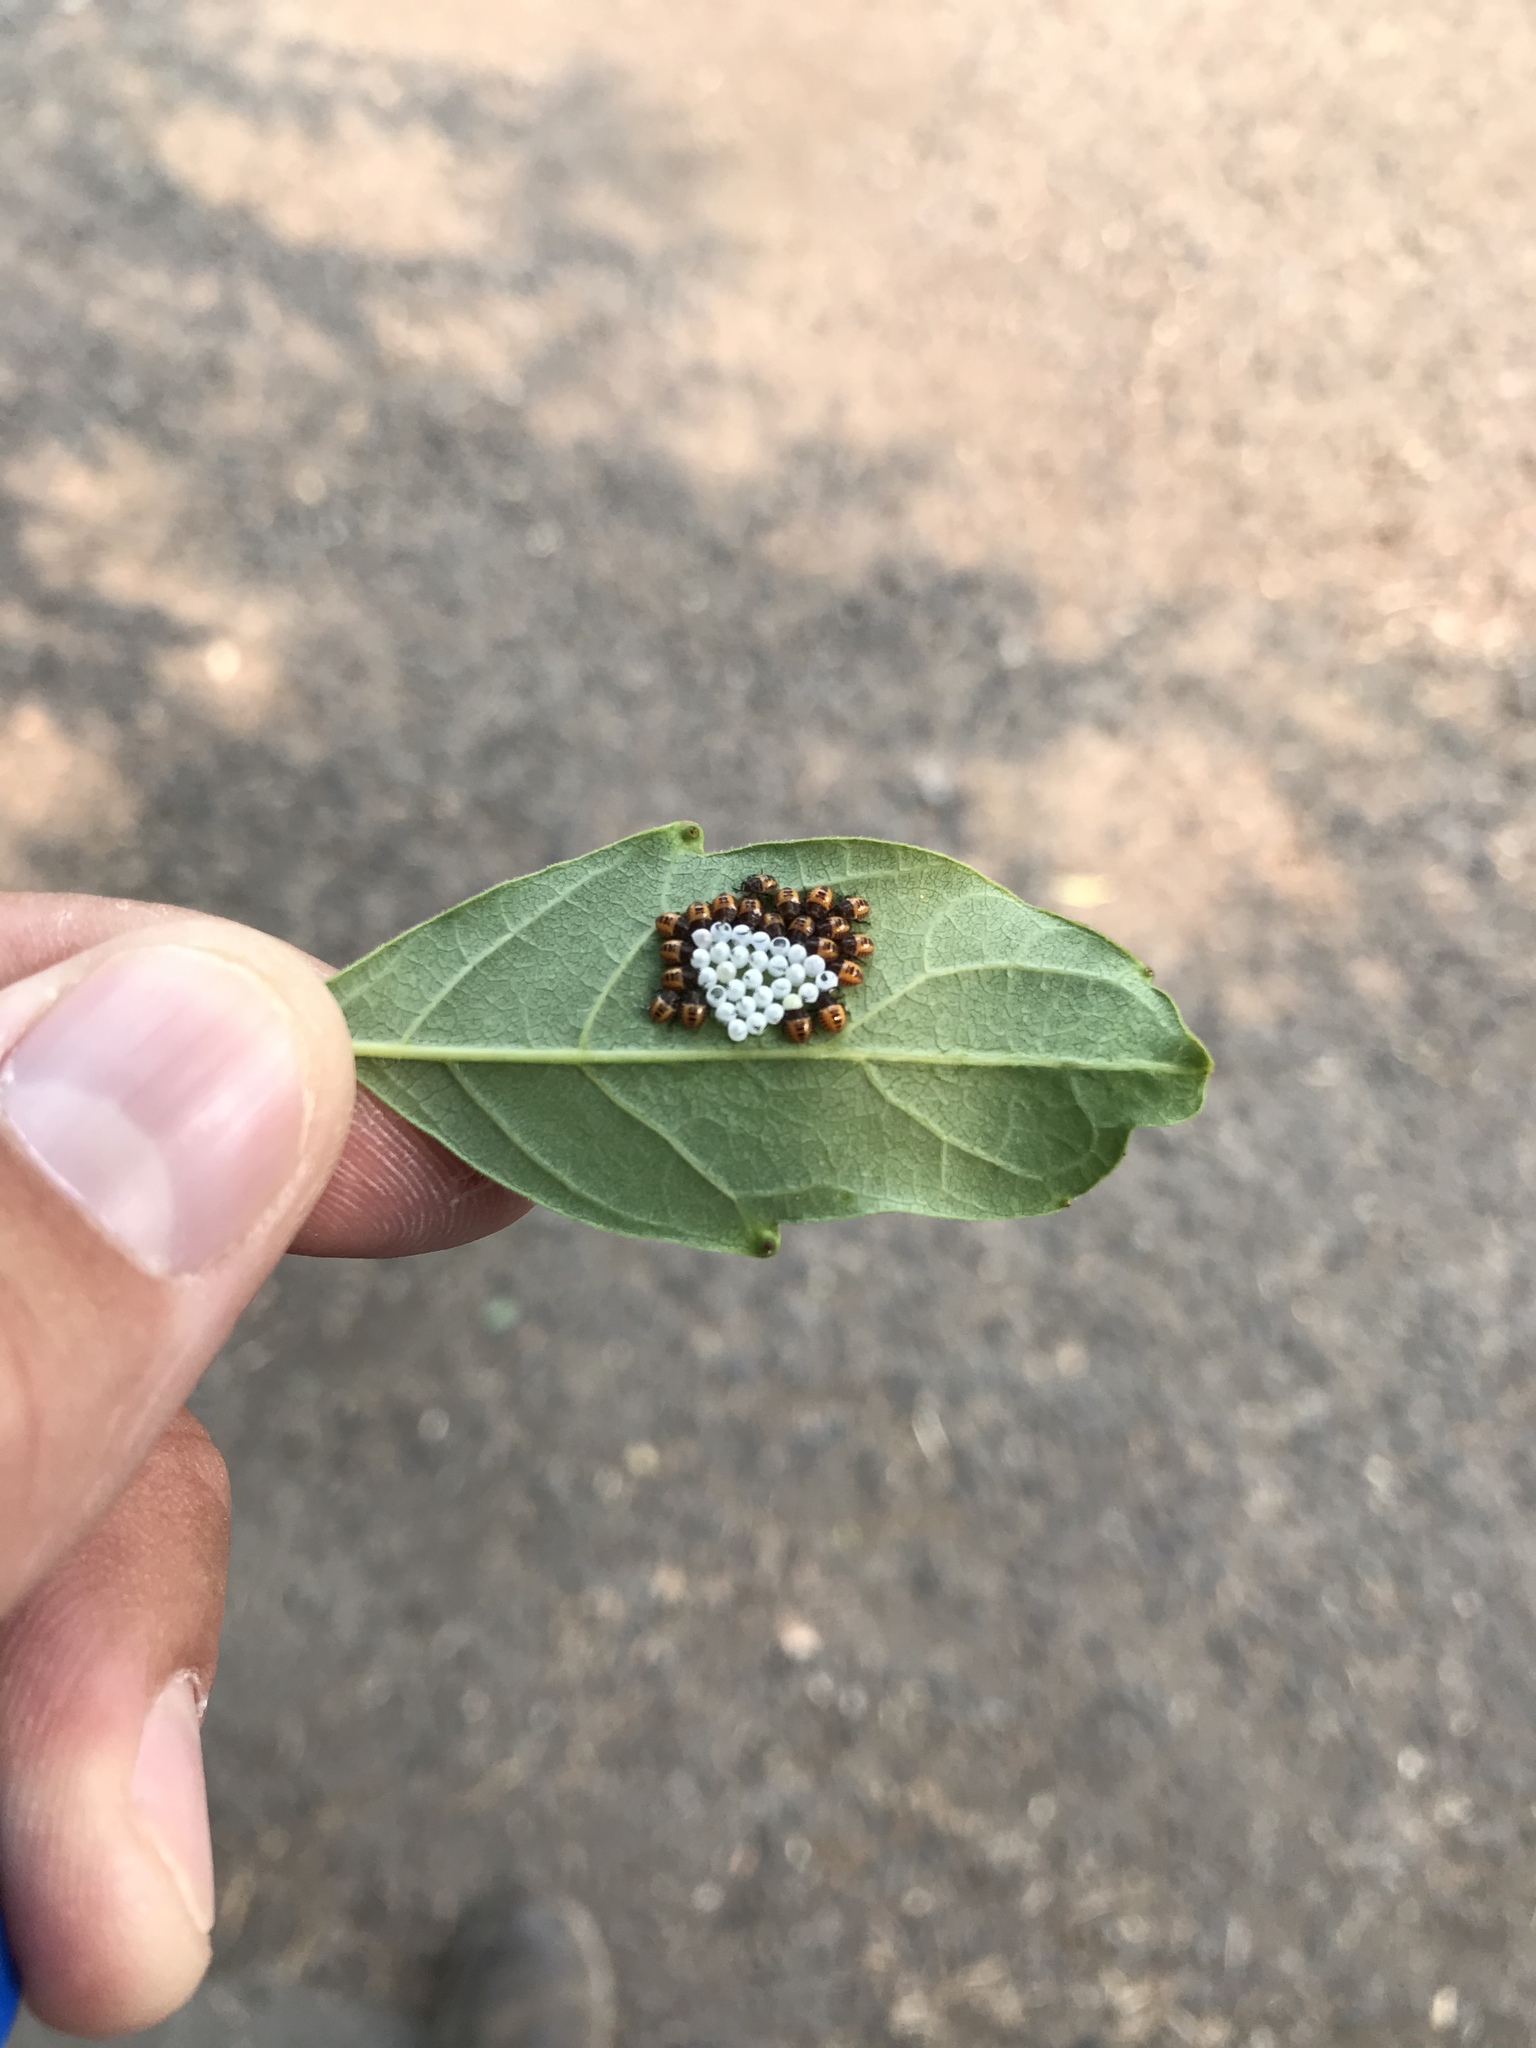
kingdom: Animalia
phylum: Arthropoda
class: Insecta
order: Hemiptera
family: Pentatomidae
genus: Halyomorpha
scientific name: Halyomorpha halys
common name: Brown marmorated stink bug
